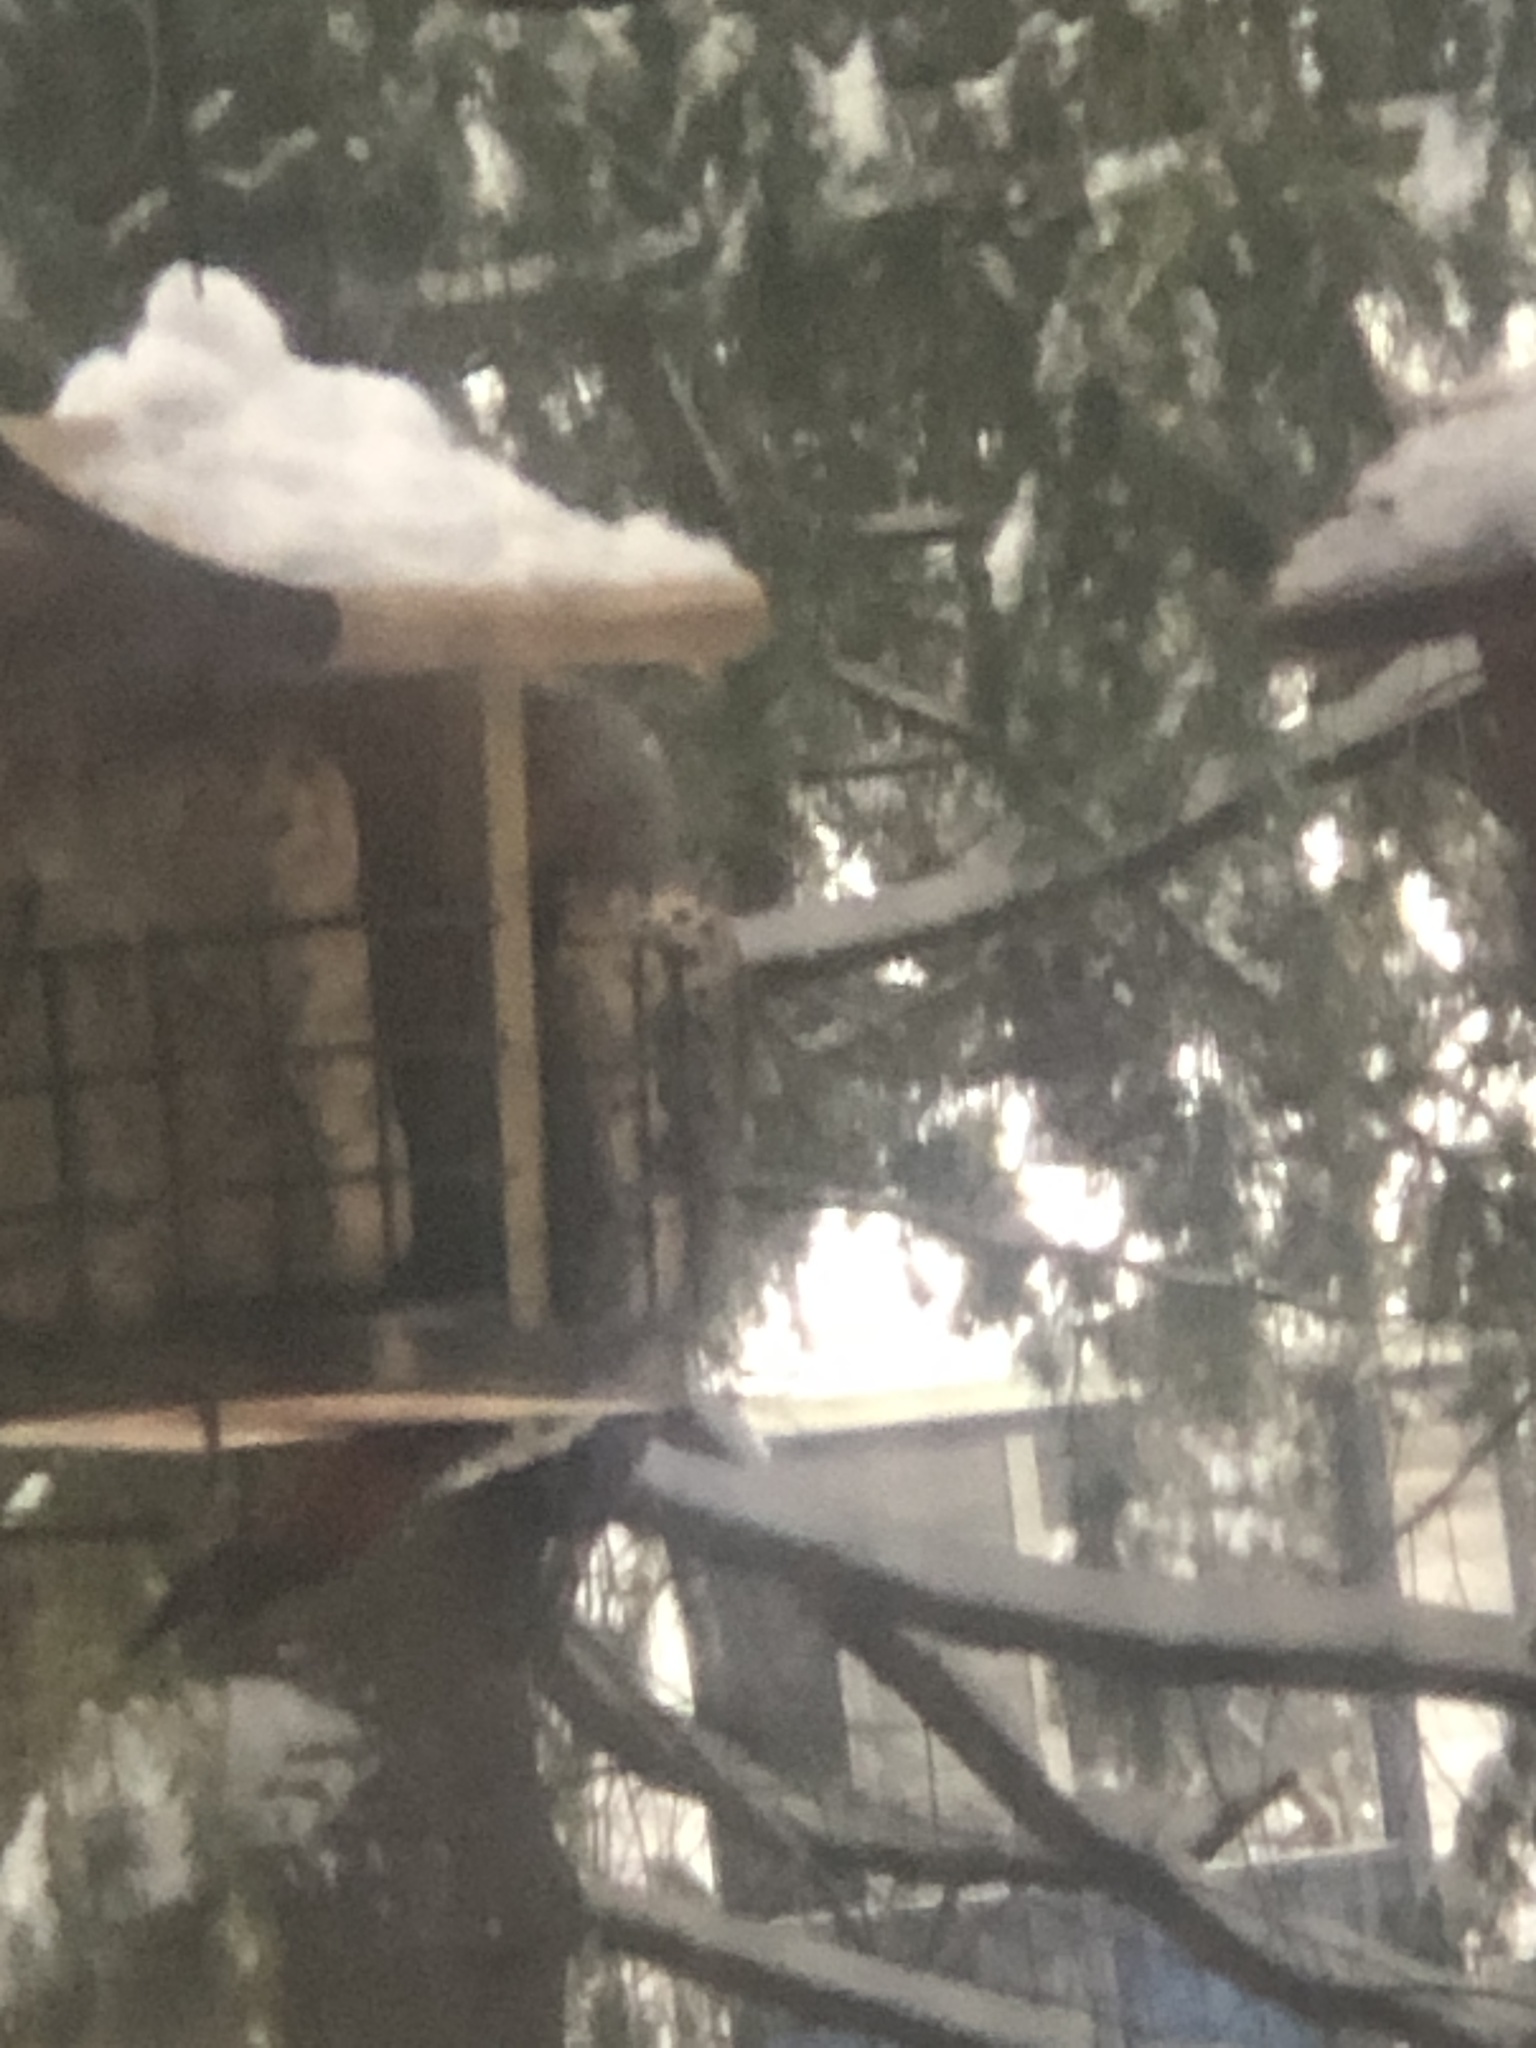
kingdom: Animalia
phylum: Chordata
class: Aves
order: Piciformes
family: Picidae
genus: Colaptes
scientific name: Colaptes auratus
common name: Northern flicker
